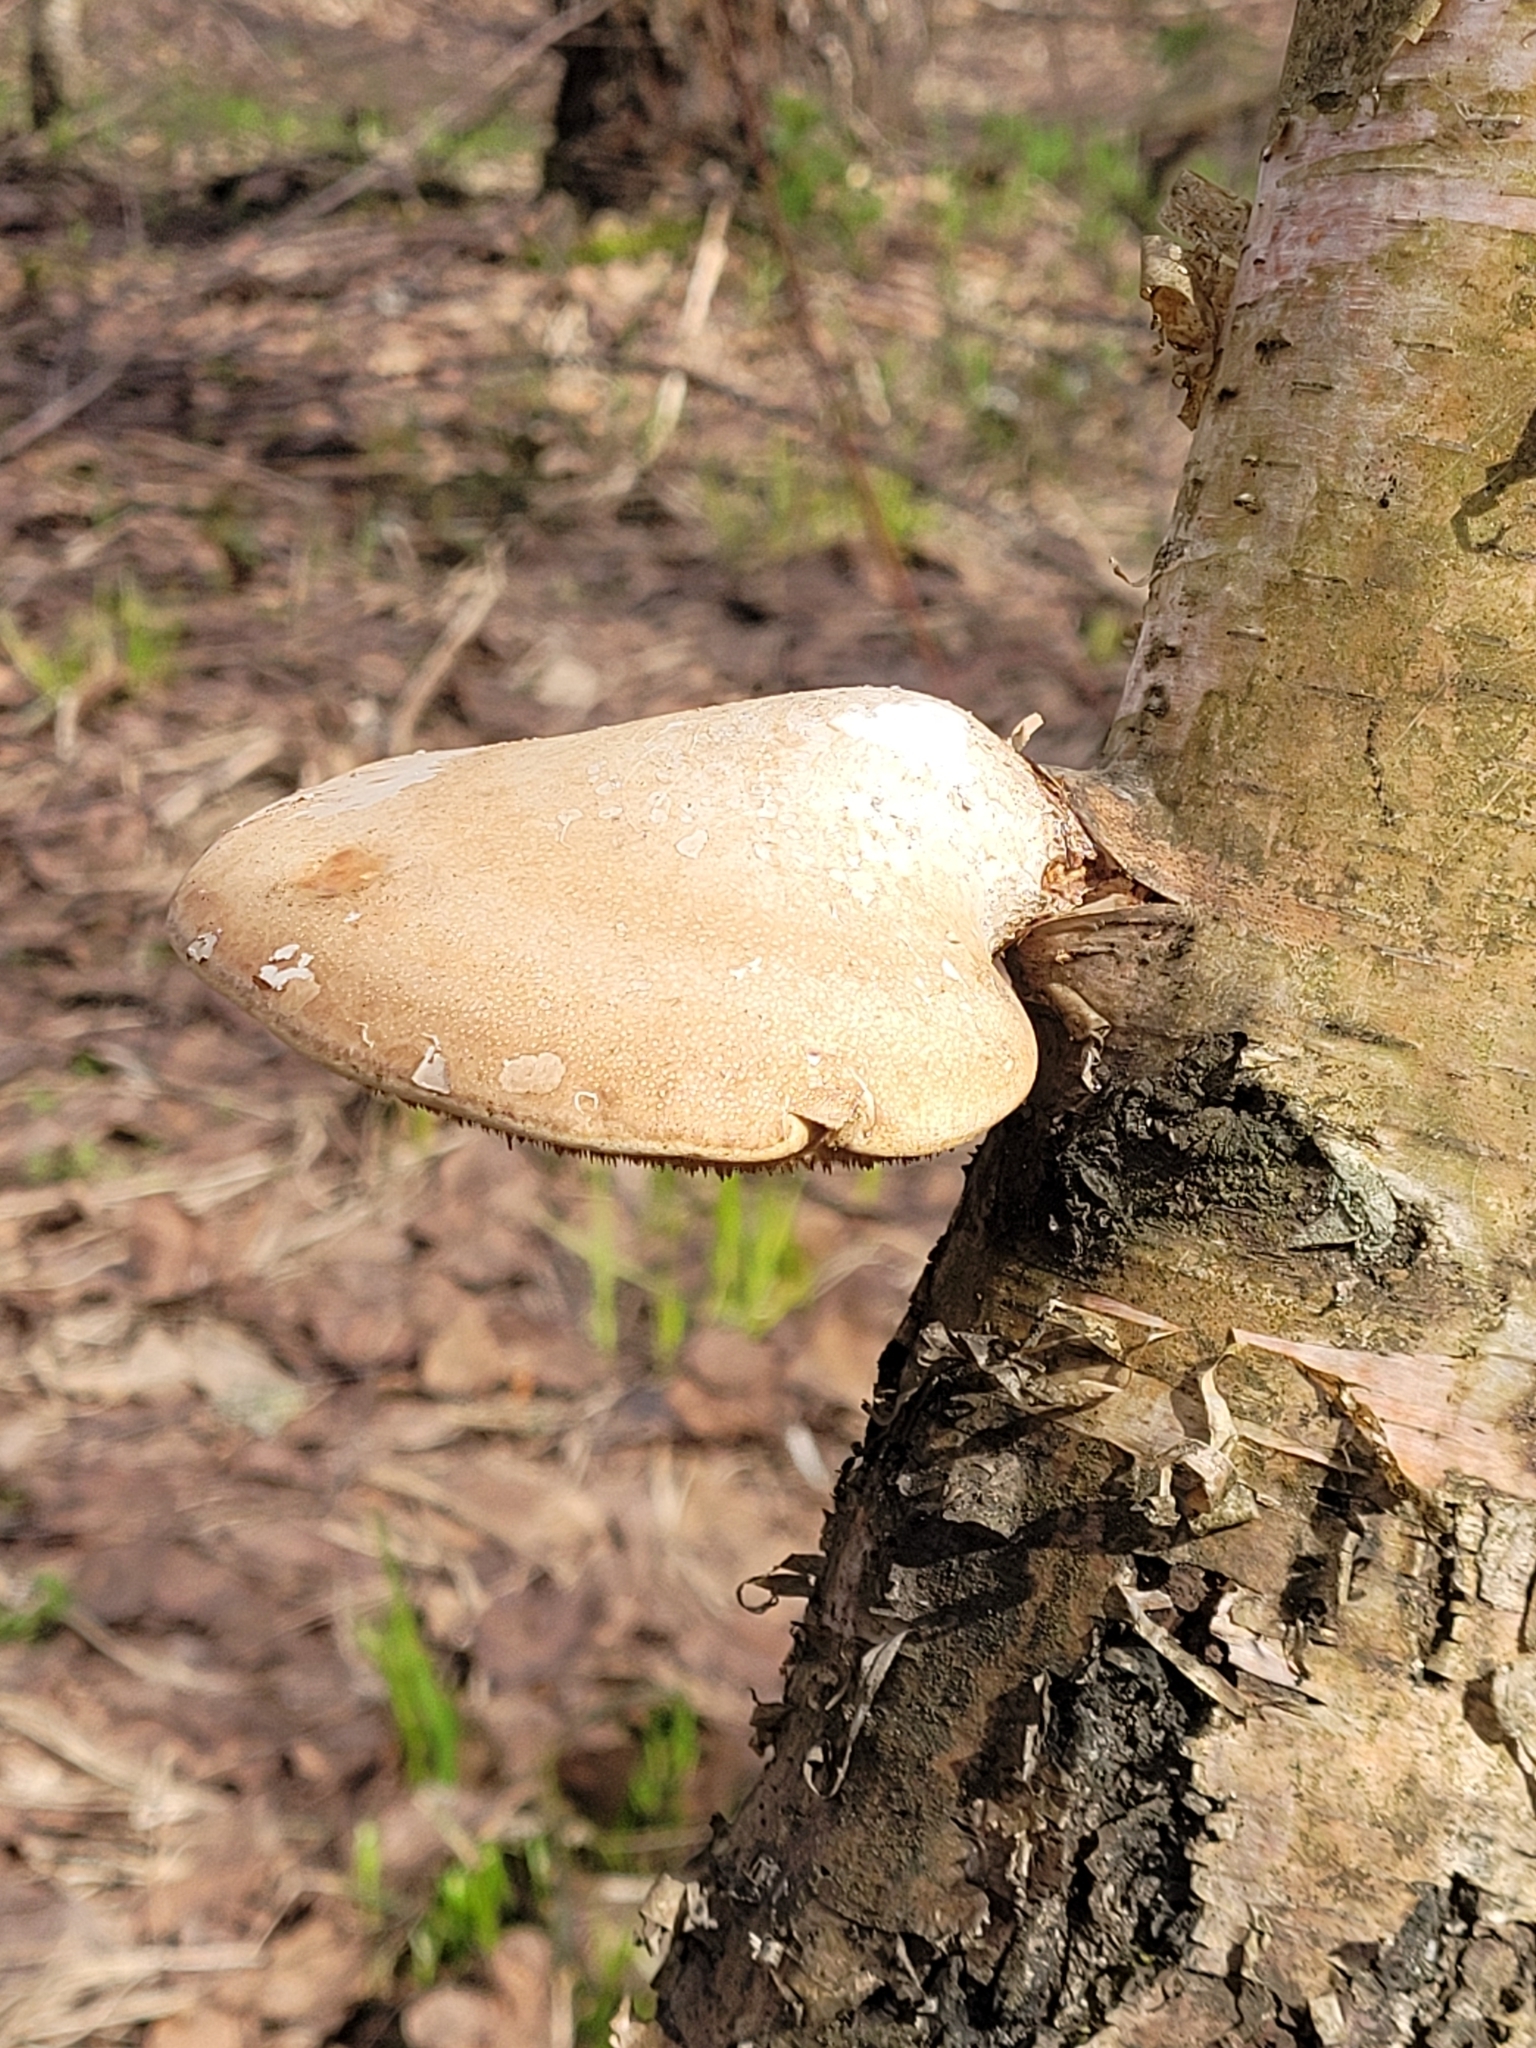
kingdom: Fungi
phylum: Basidiomycota
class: Agaricomycetes
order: Polyporales
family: Fomitopsidaceae
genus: Fomitopsis
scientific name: Fomitopsis betulina
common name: Birch polypore
